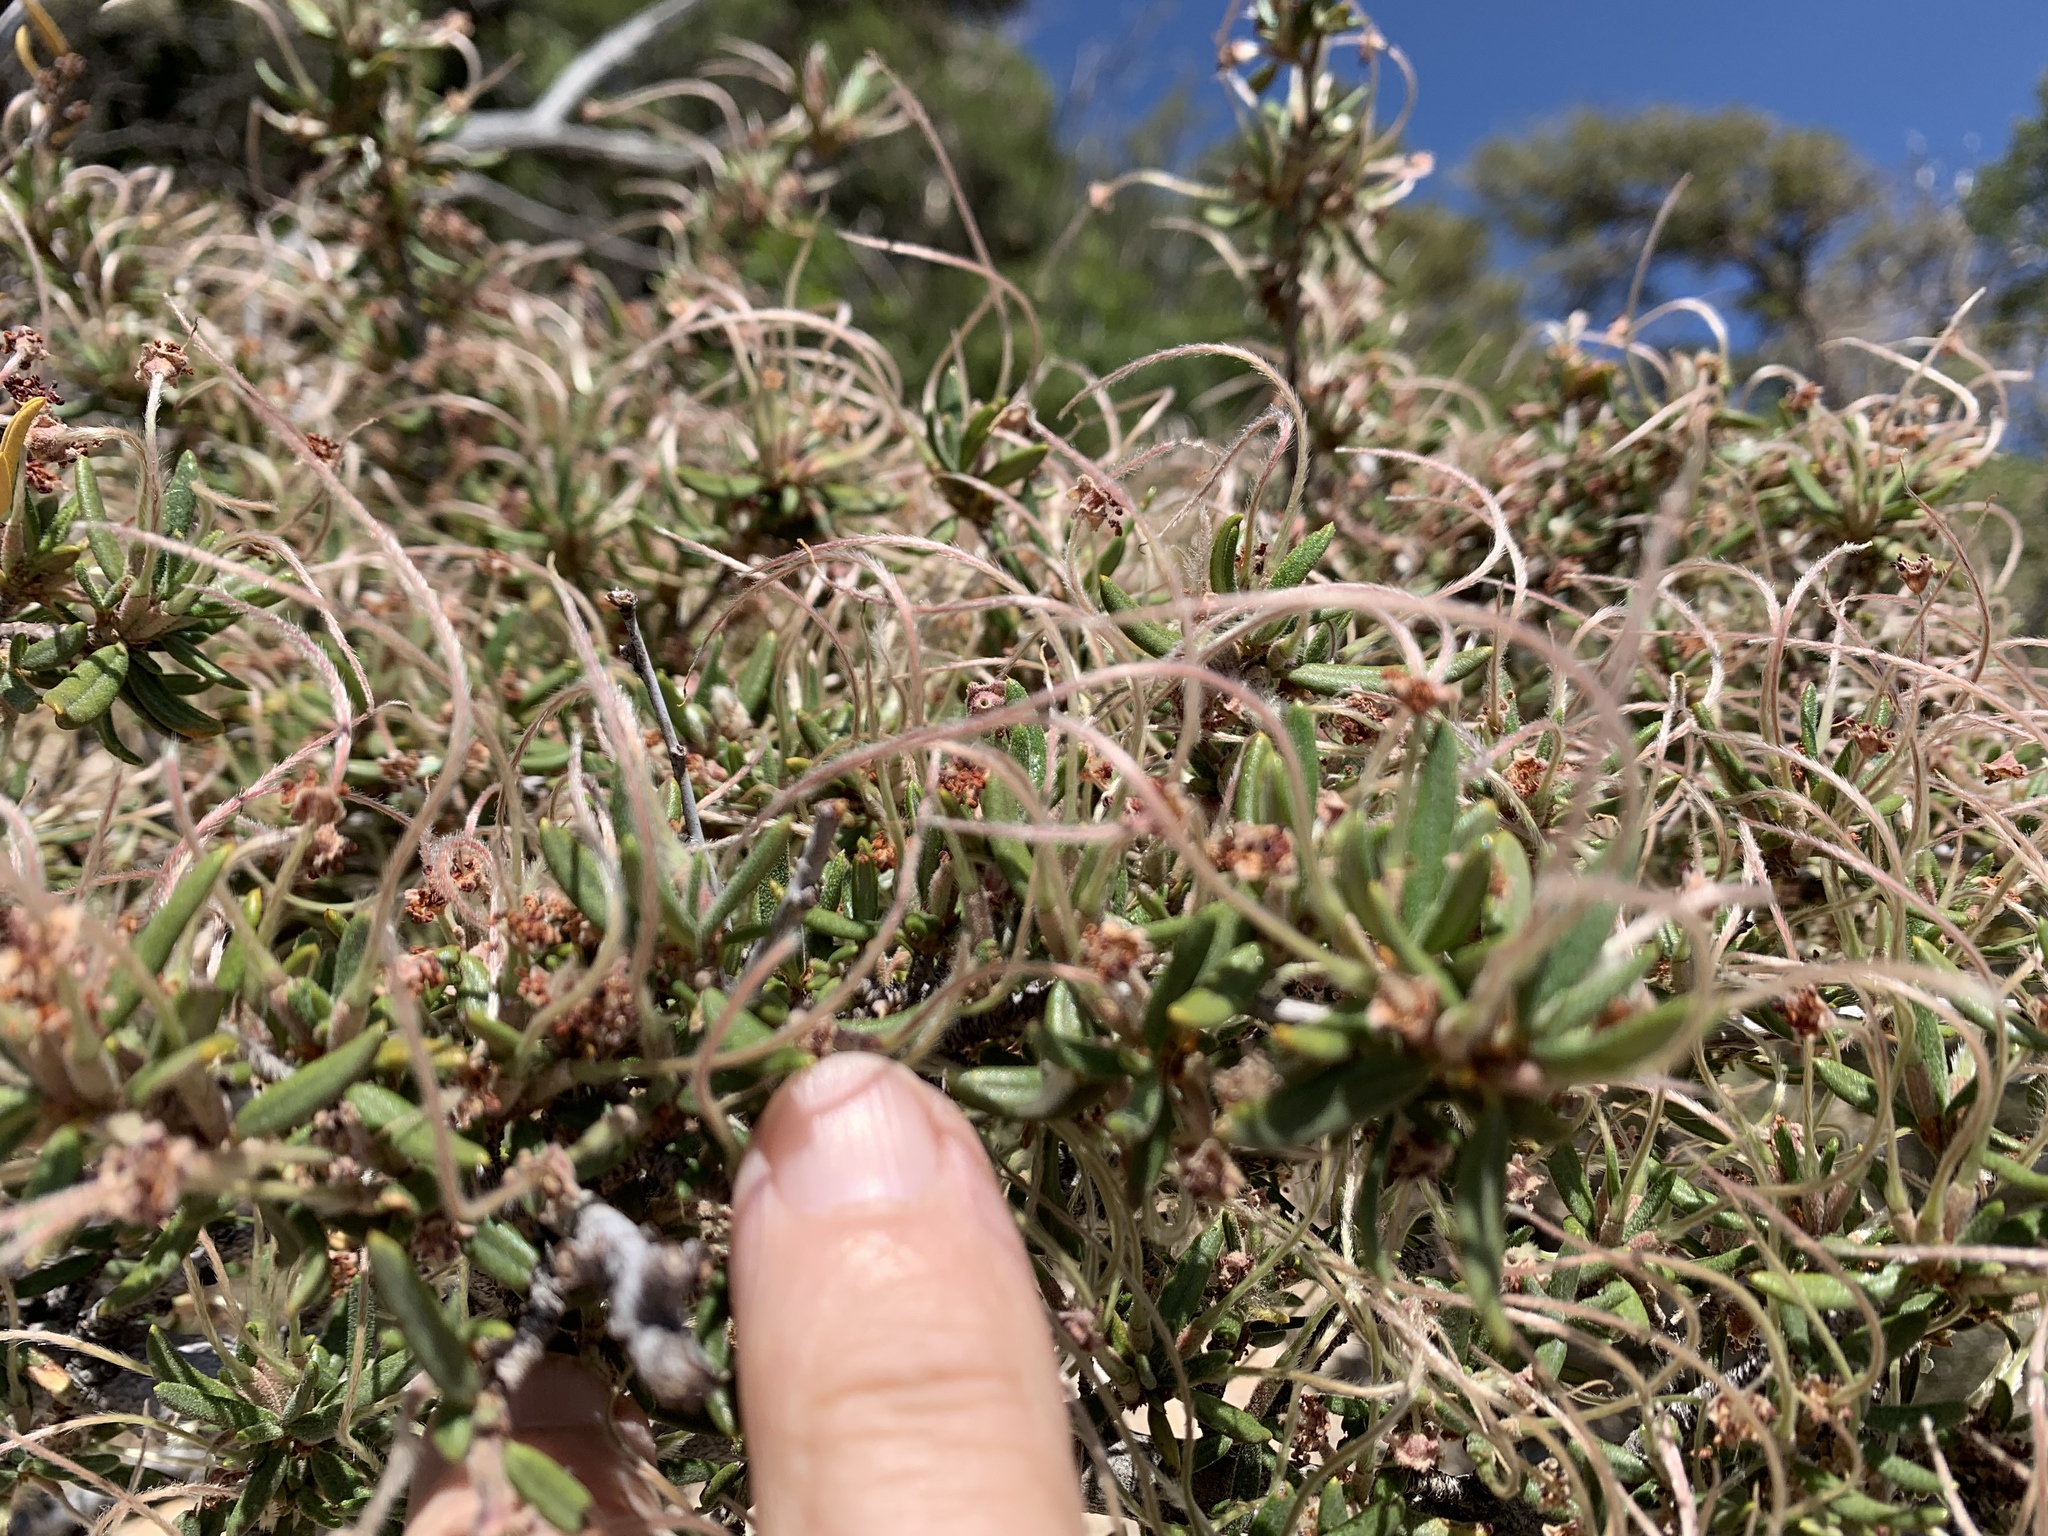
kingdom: Plantae
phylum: Tracheophyta
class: Magnoliopsida
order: Rosales
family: Rosaceae
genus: Purshia
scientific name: Purshia stansburiana
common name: Stansbury's cliffrose
